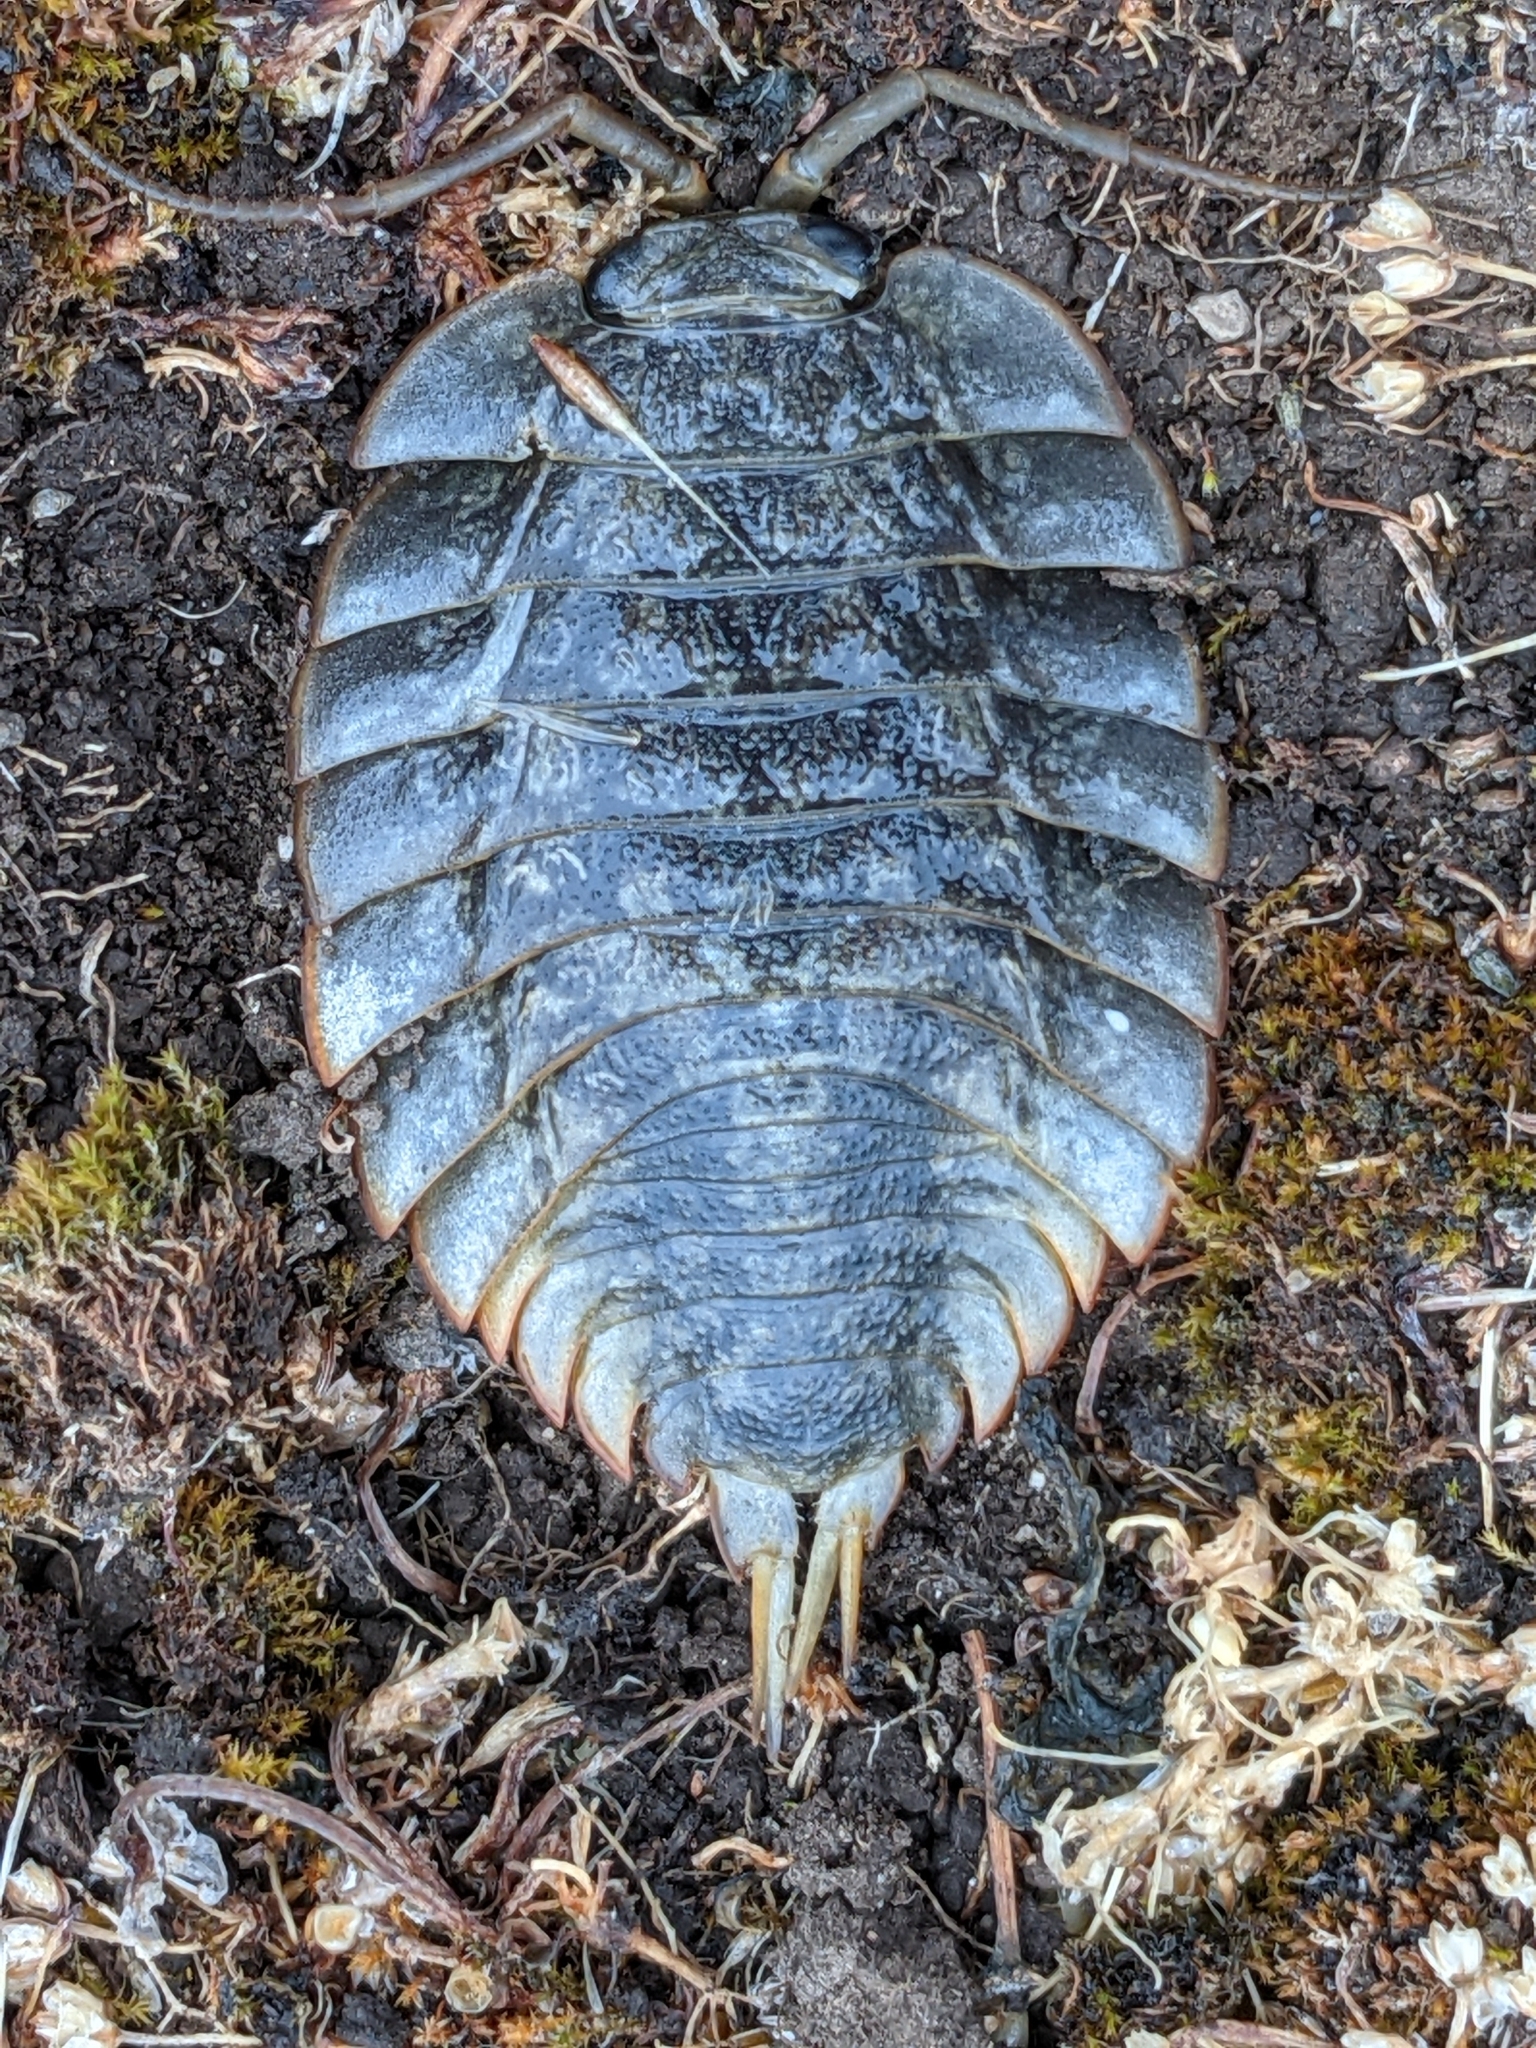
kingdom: Animalia
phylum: Arthropoda
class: Malacostraca
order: Isopoda
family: Ligiidae
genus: Ligia
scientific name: Ligia pallasii
